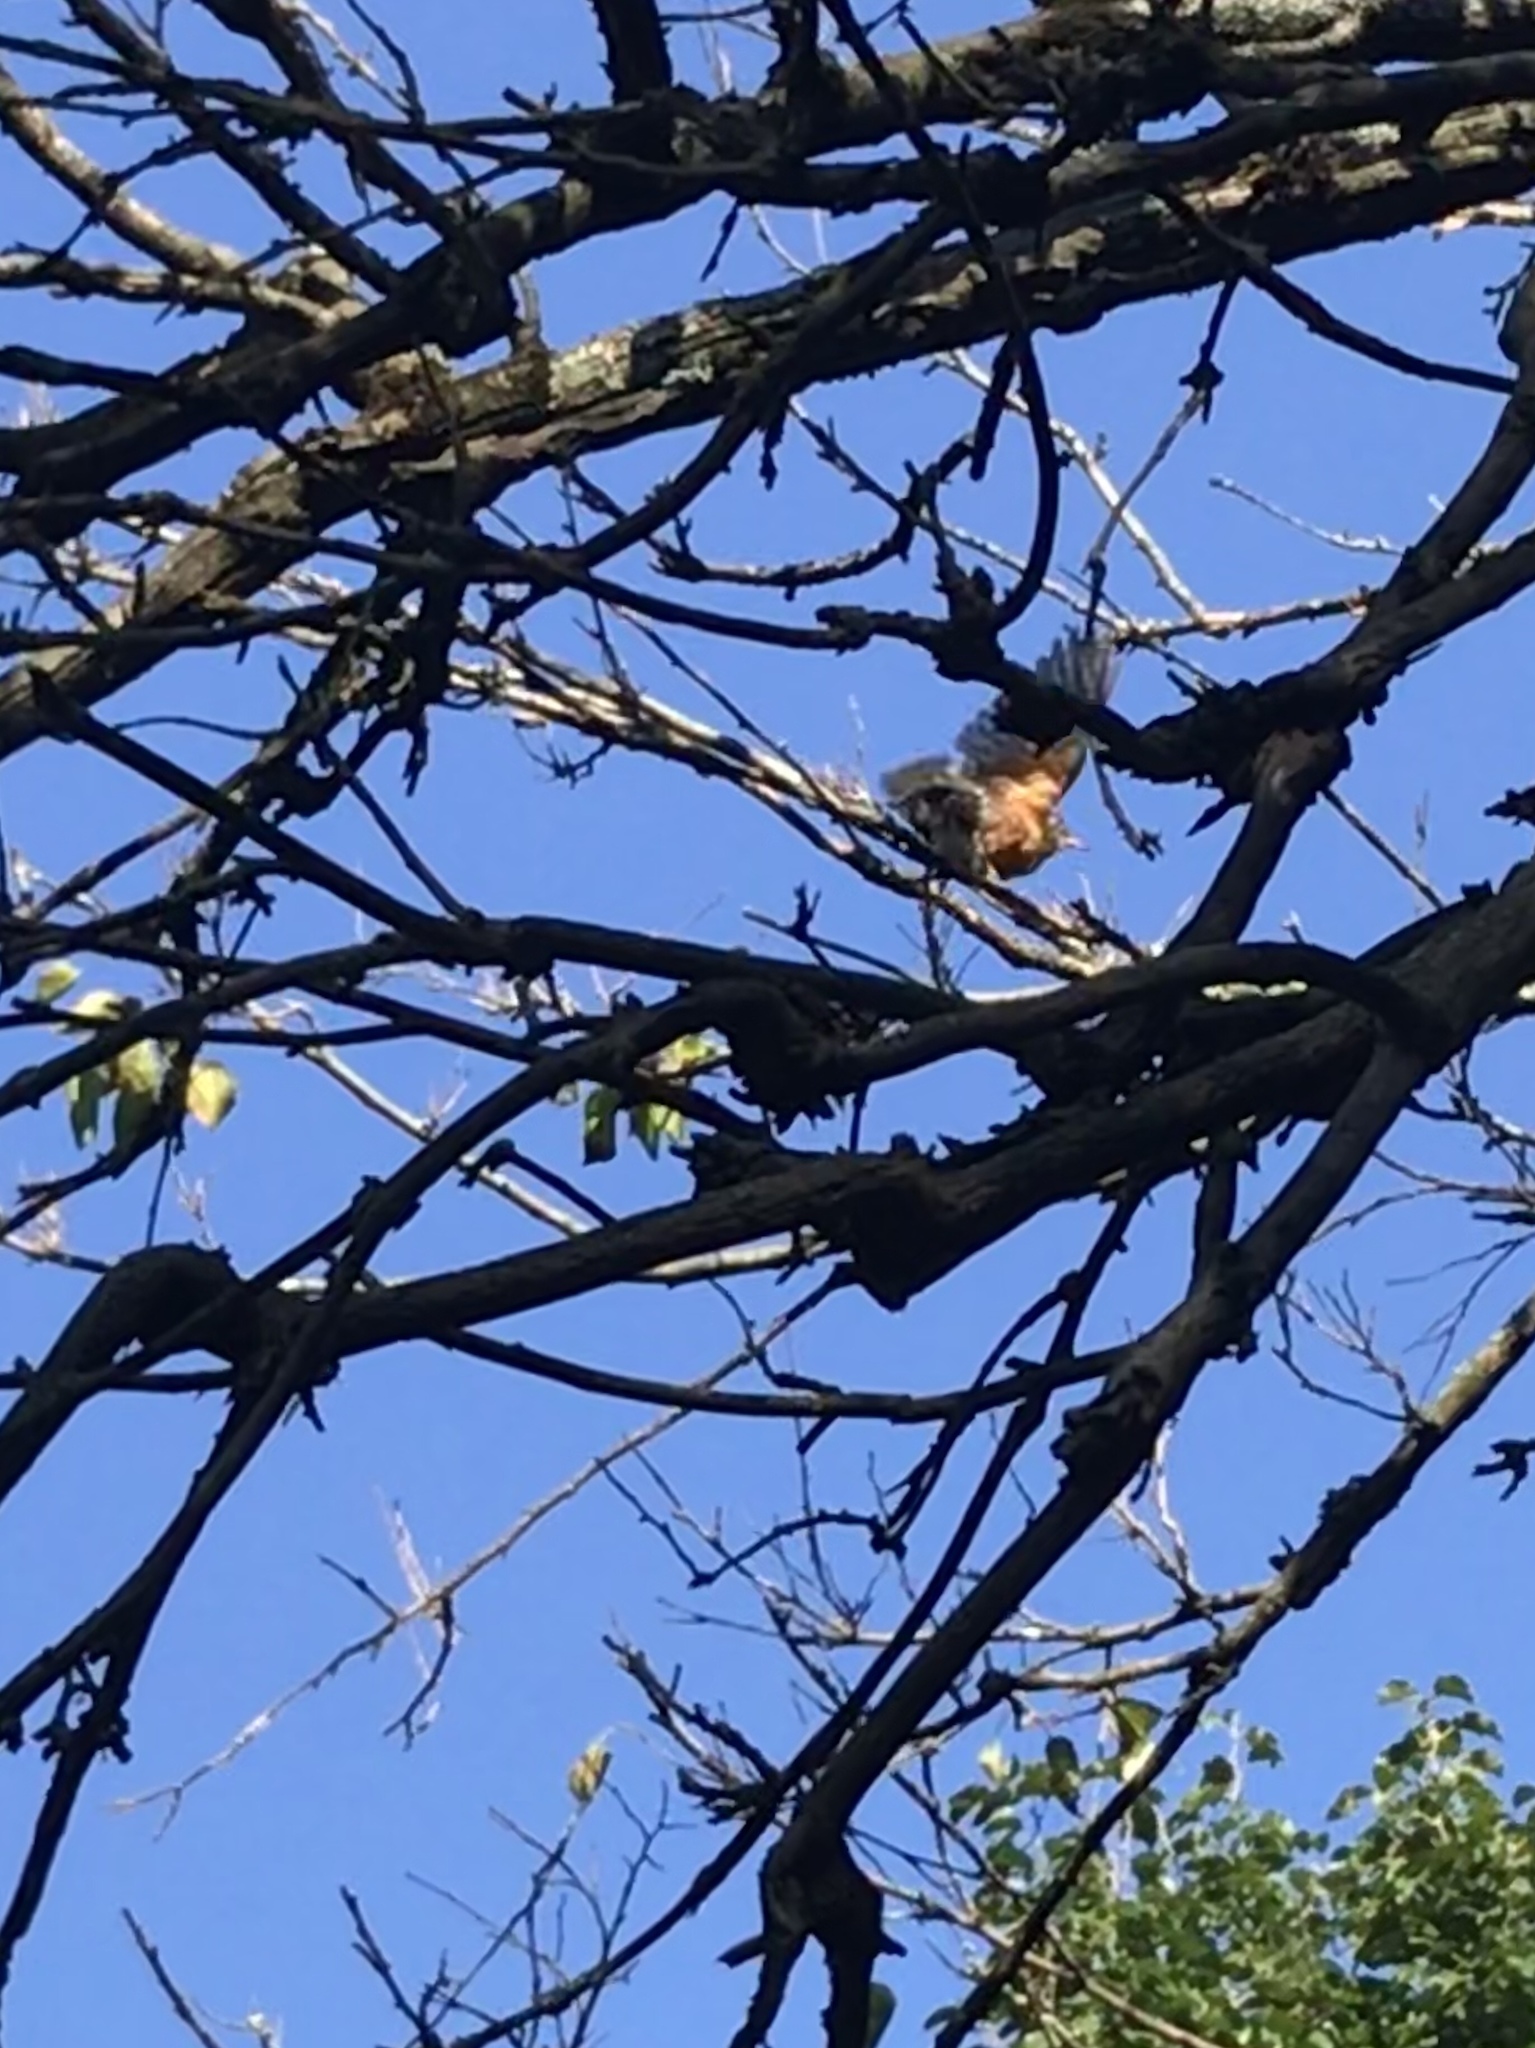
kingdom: Animalia
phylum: Chordata
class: Aves
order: Passeriformes
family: Turdidae
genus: Turdus
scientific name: Turdus migratorius
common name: American robin
